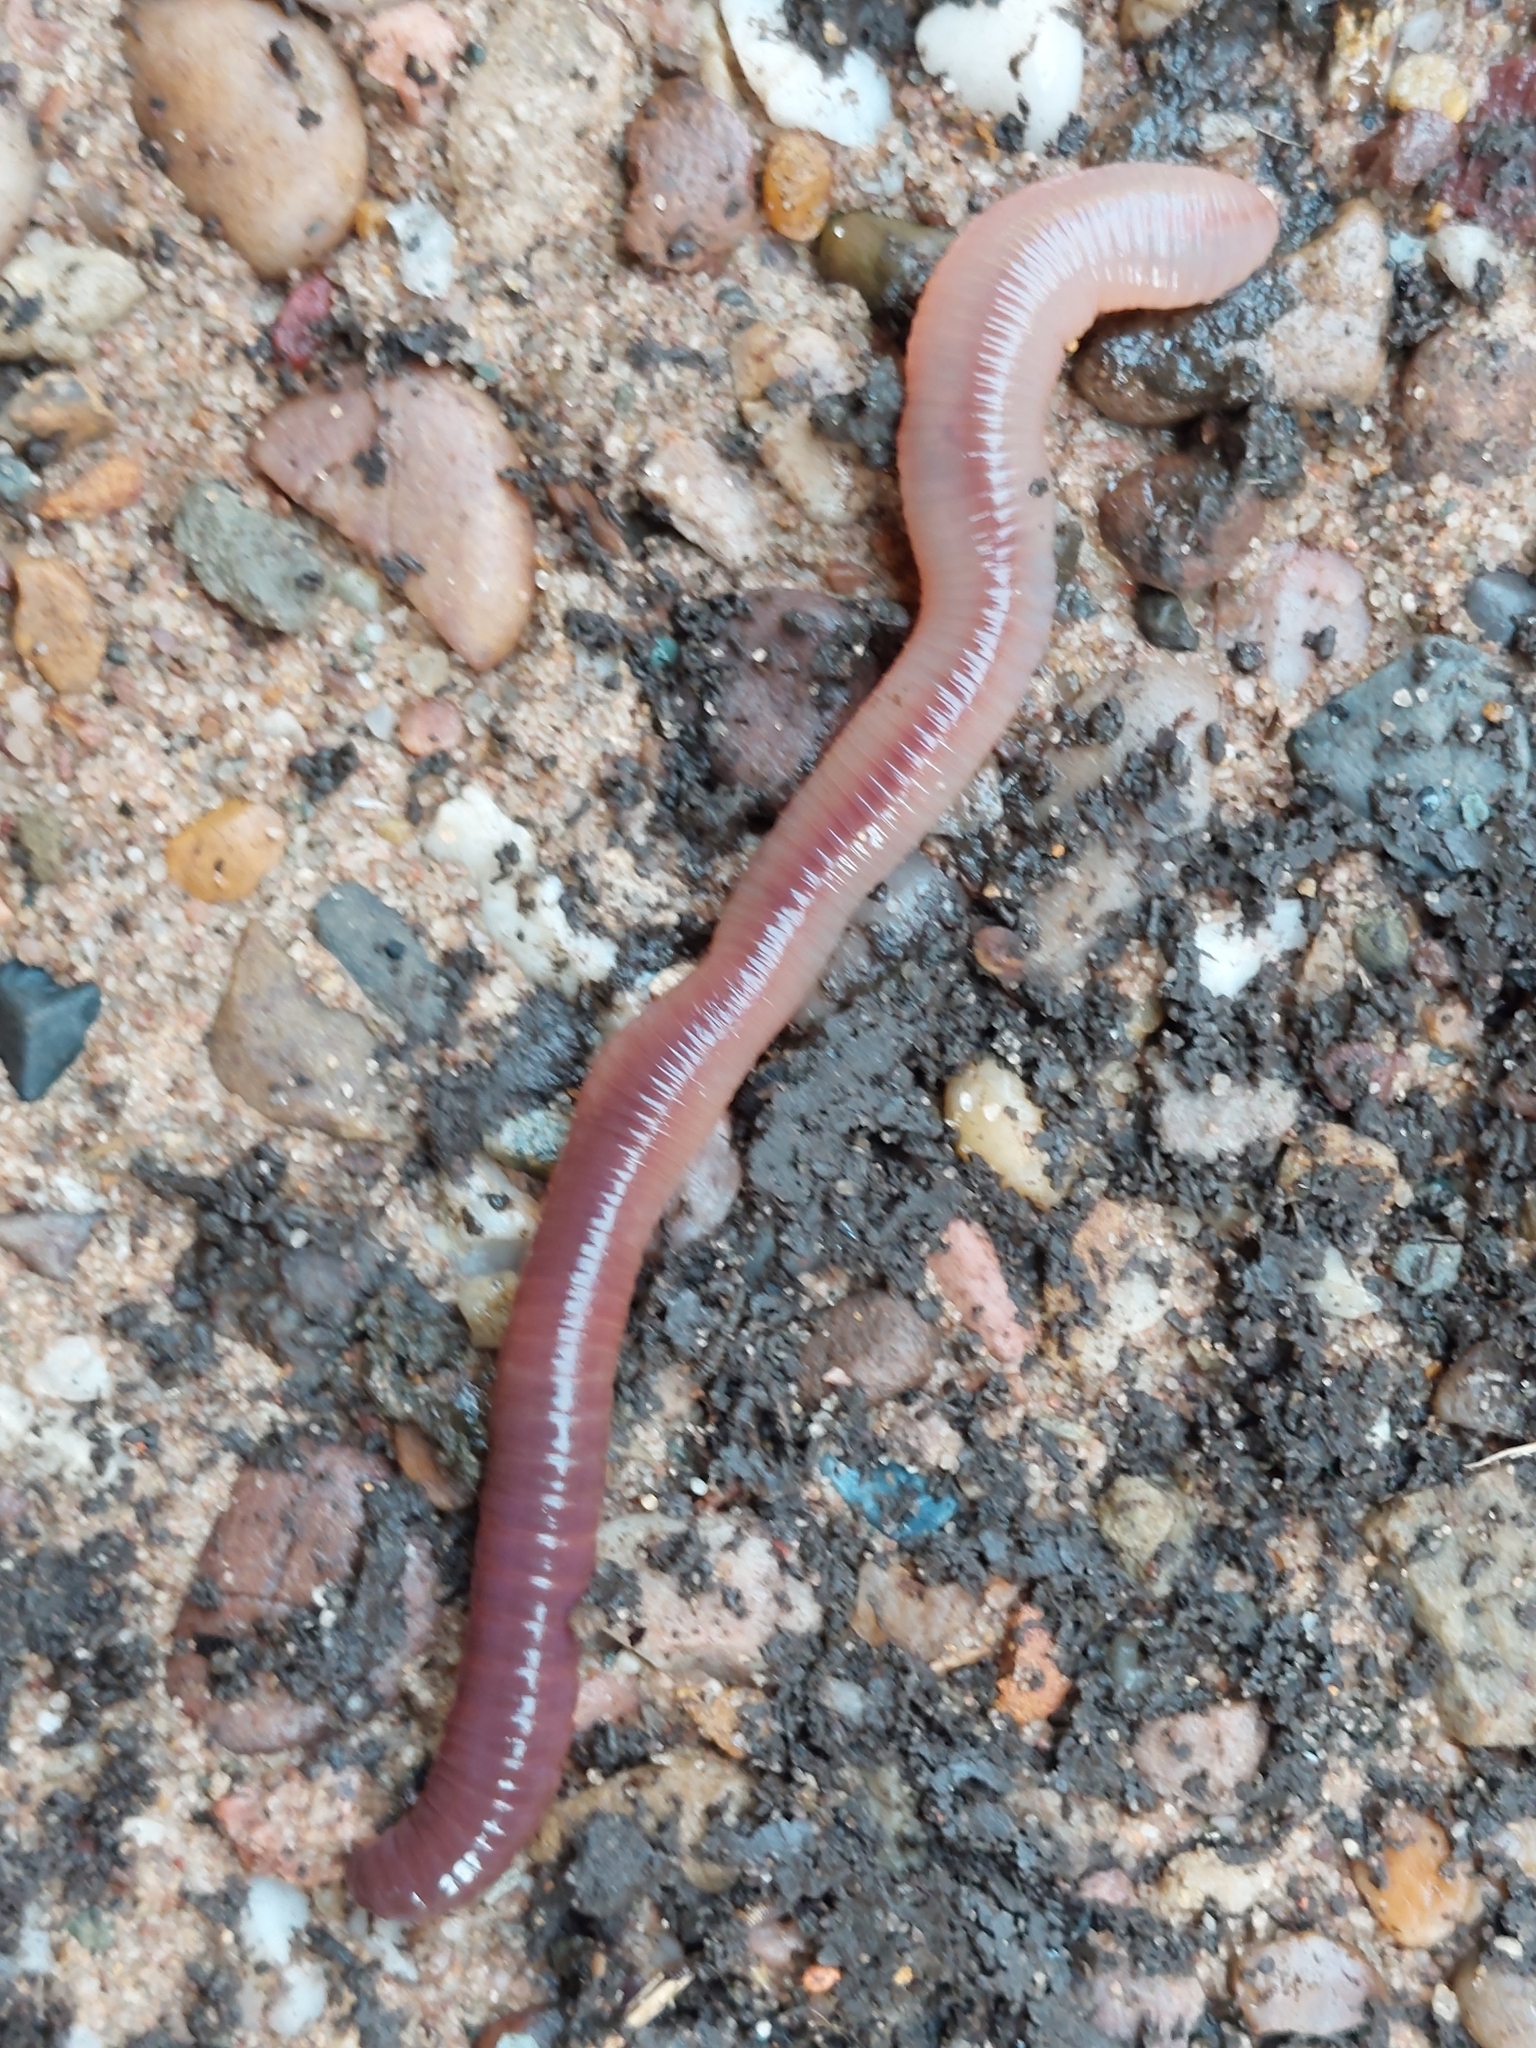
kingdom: Animalia
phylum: Annelida
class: Clitellata
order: Crassiclitellata
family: Lumbricidae
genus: Lumbricus
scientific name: Lumbricus terrestris
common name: Common earthworm
